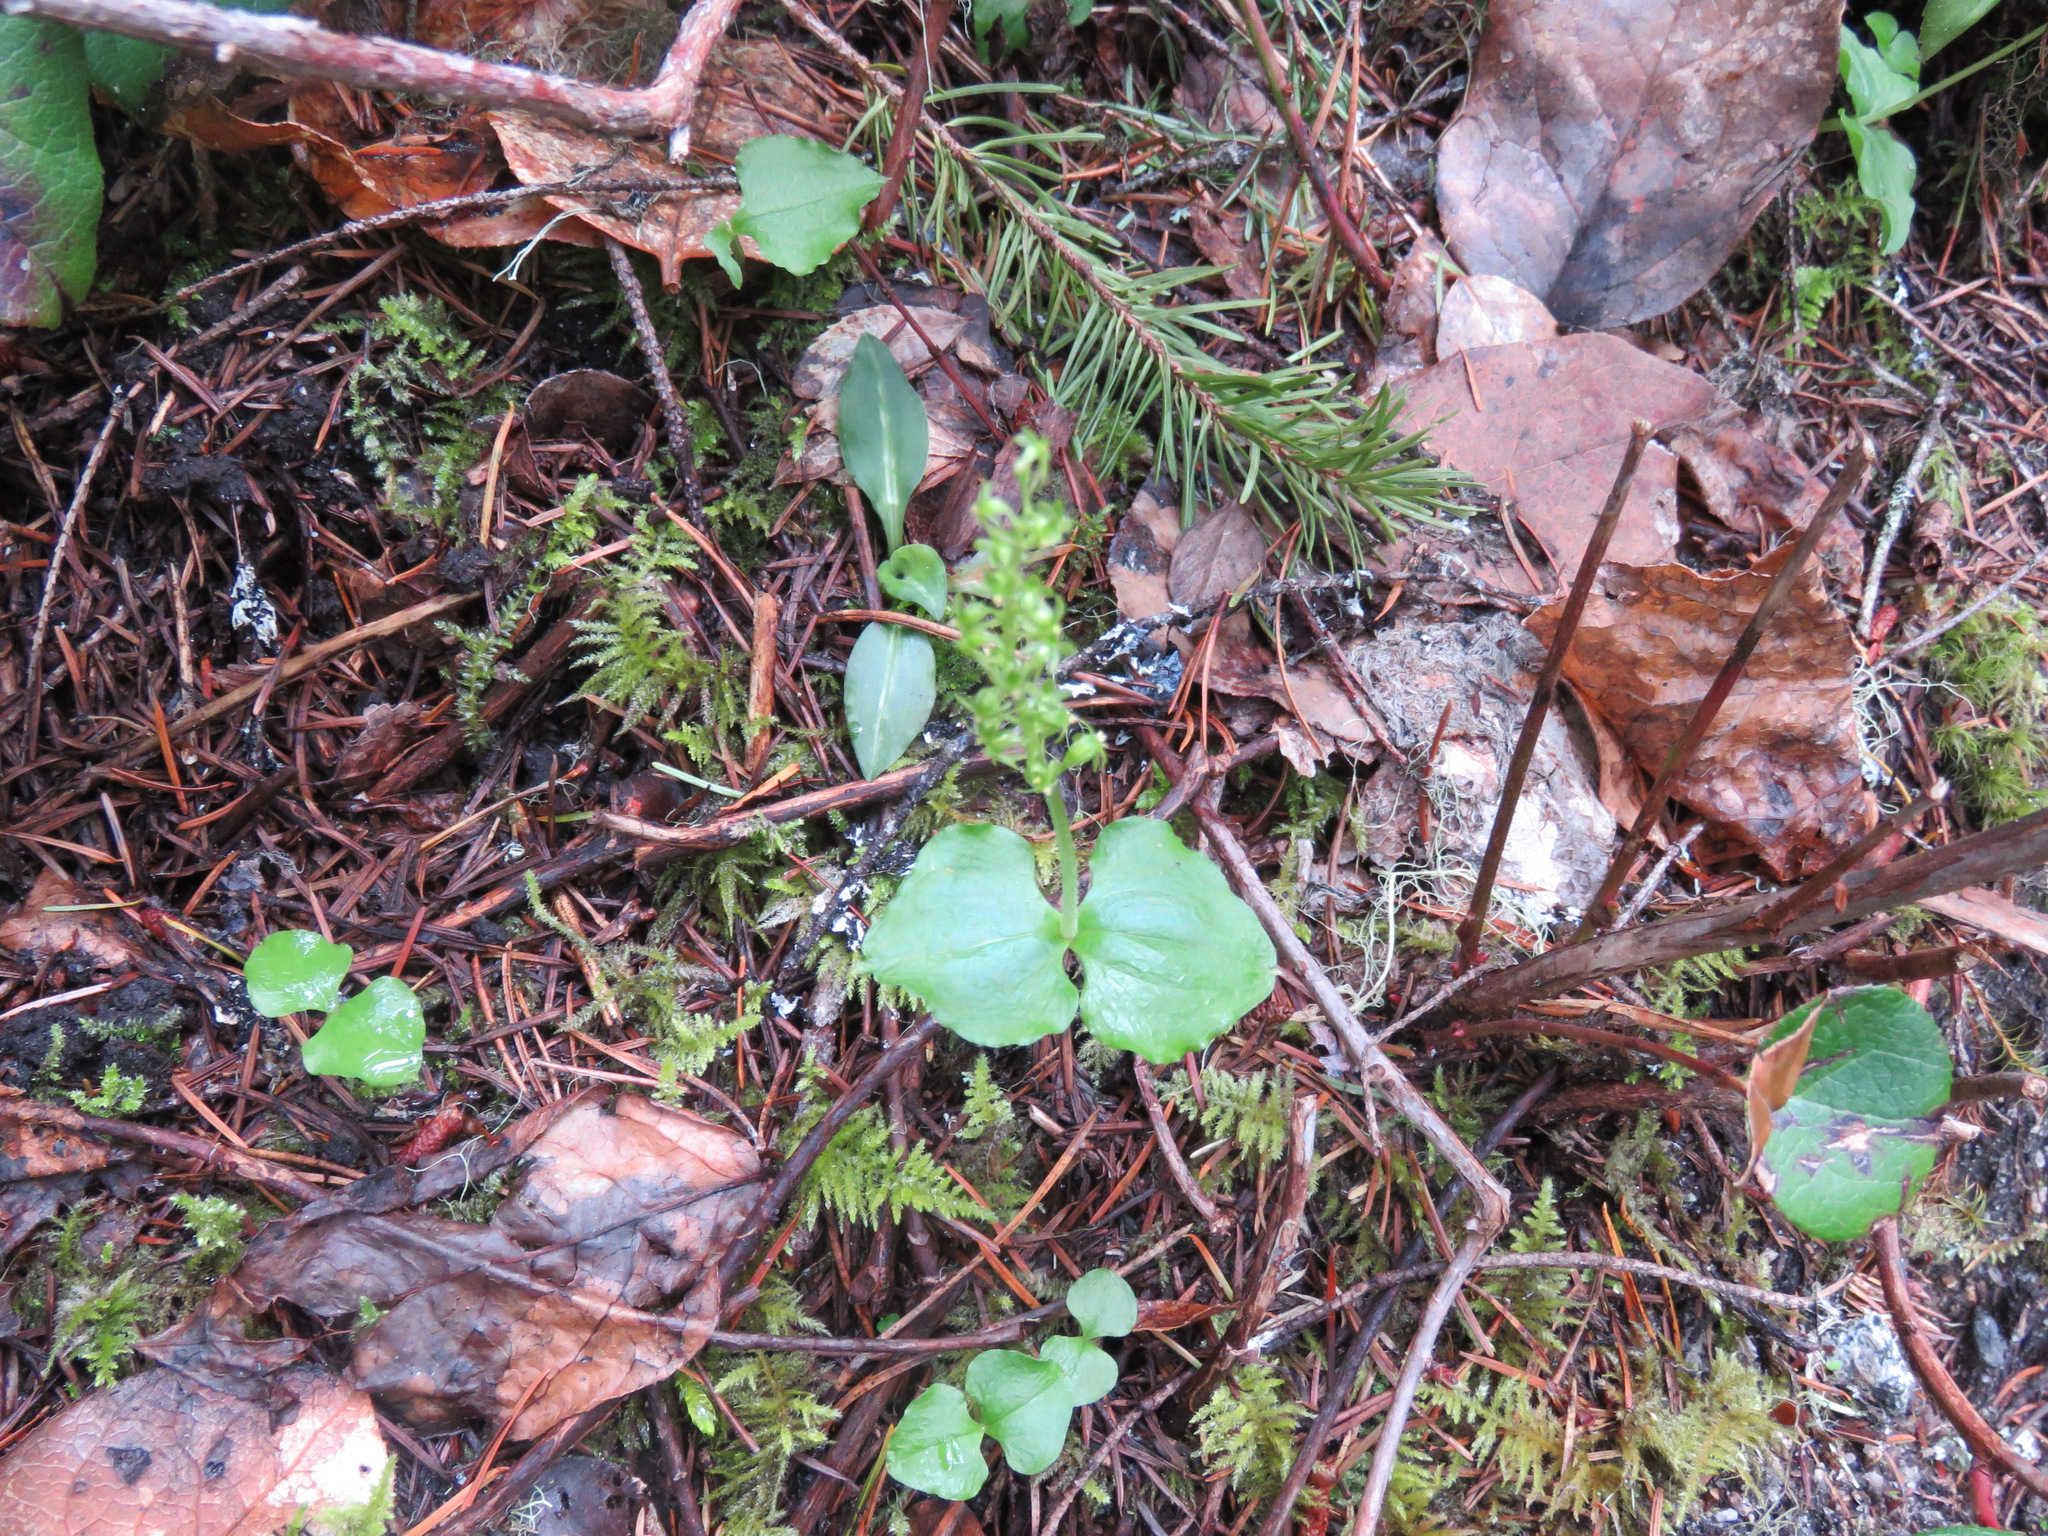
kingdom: Plantae
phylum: Tracheophyta
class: Liliopsida
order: Asparagales
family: Orchidaceae
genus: Neottia
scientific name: Neottia cordata
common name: Lesser twayblade
